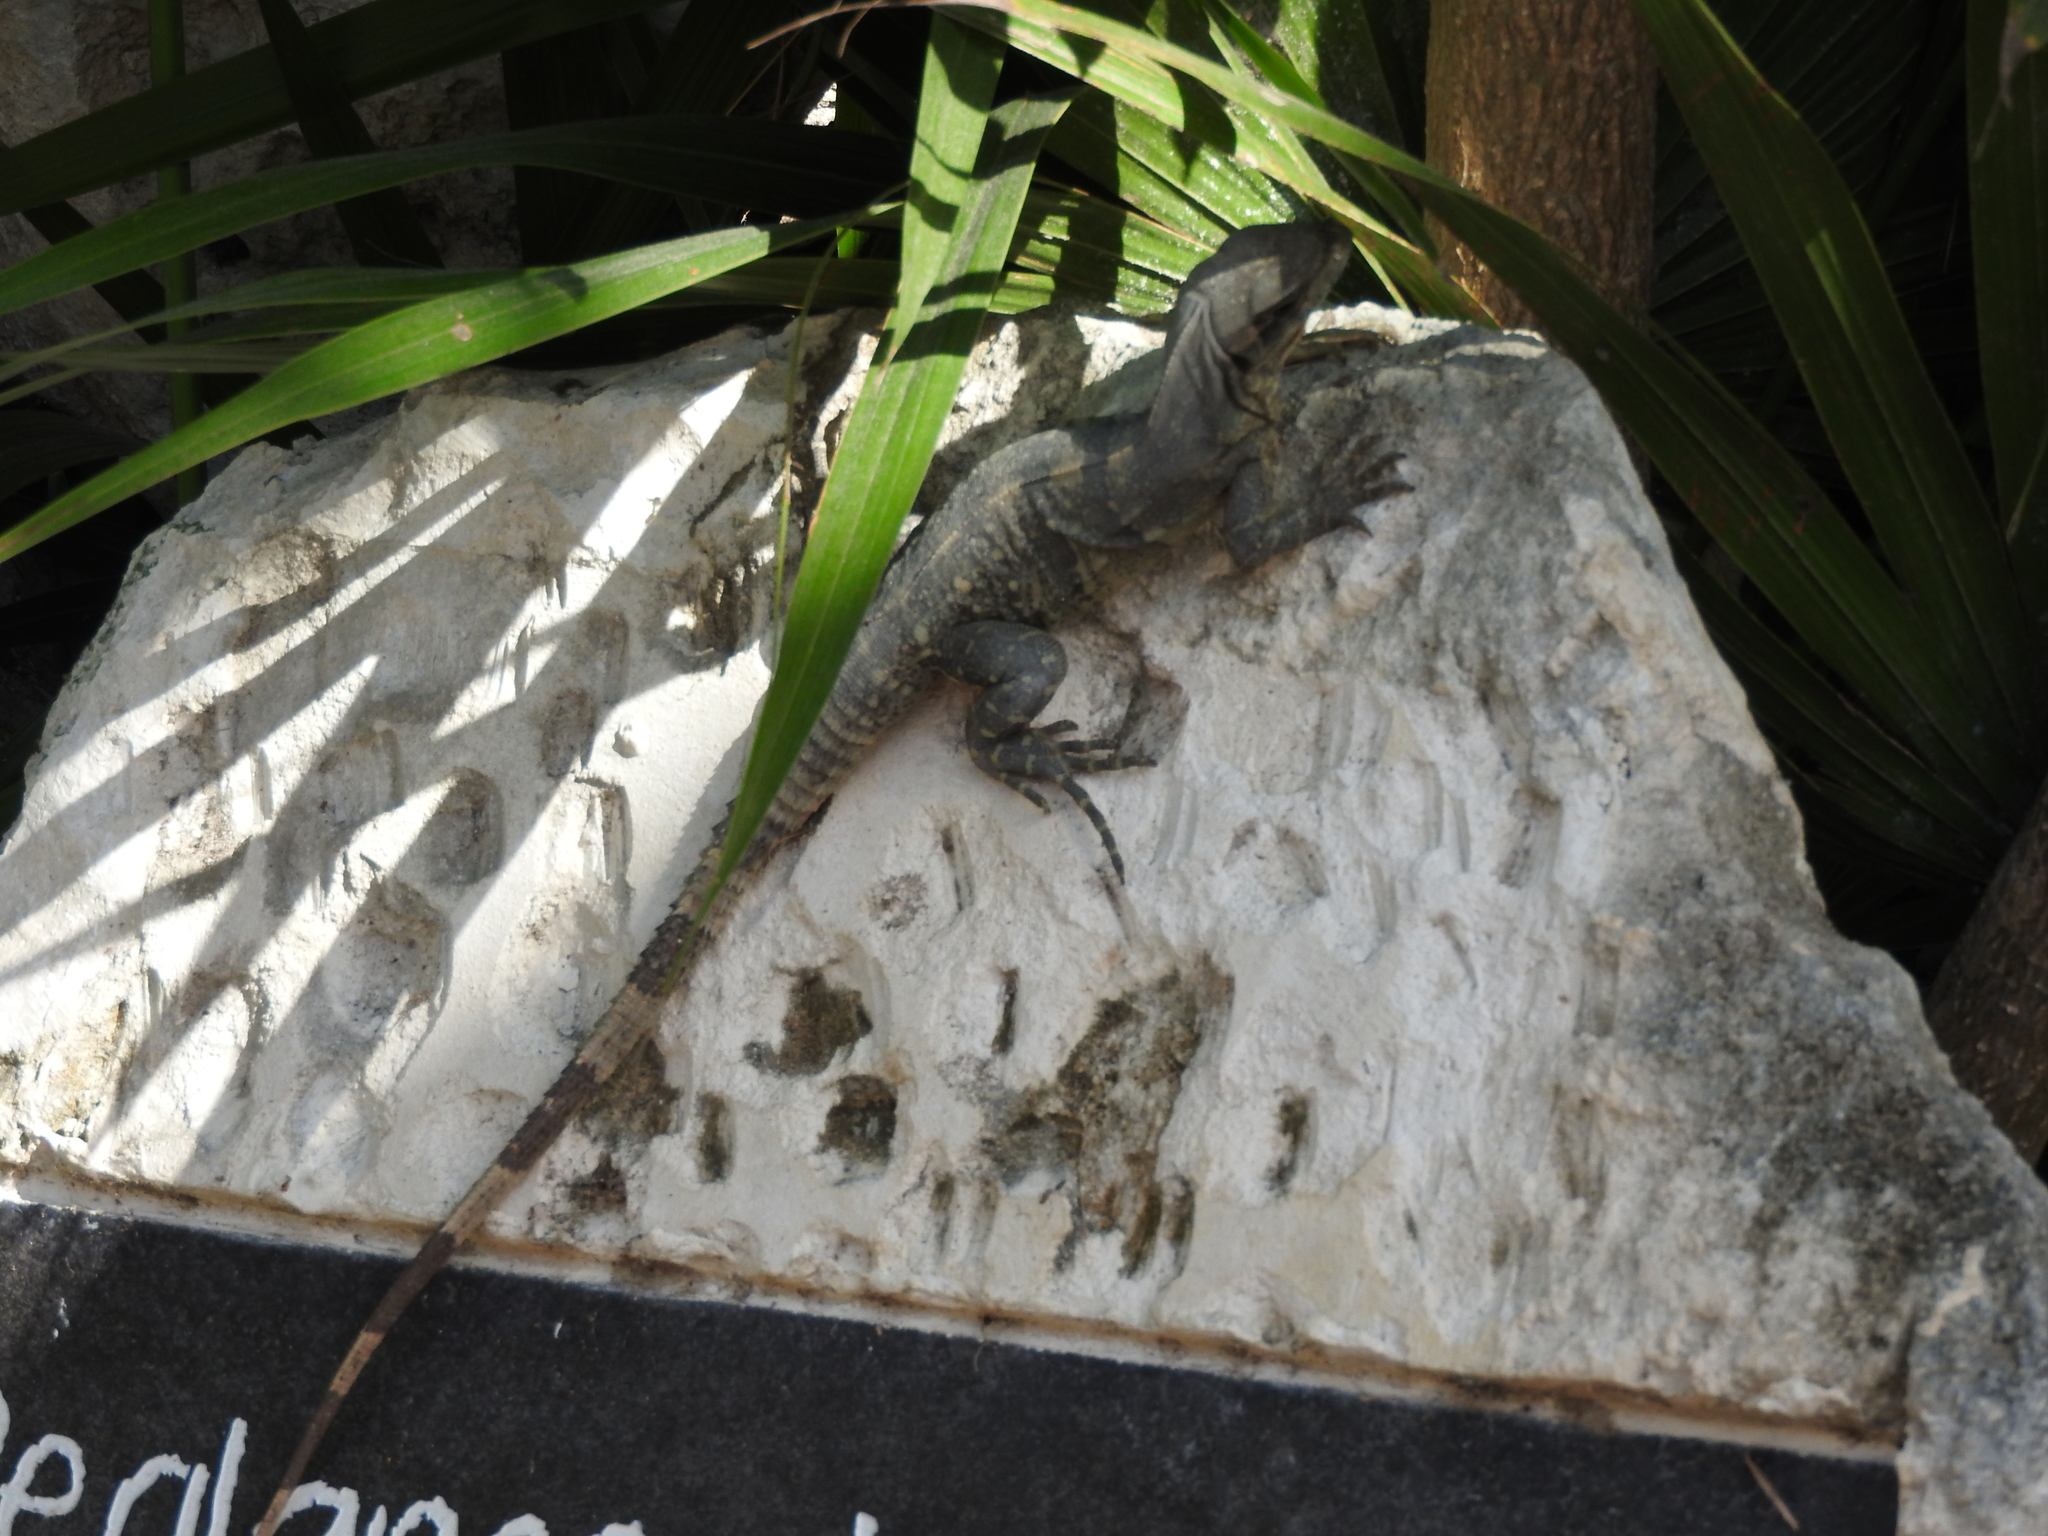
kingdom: Animalia
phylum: Chordata
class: Squamata
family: Iguanidae
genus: Ctenosaura
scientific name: Ctenosaura similis
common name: Black spiny-tailed iguana
